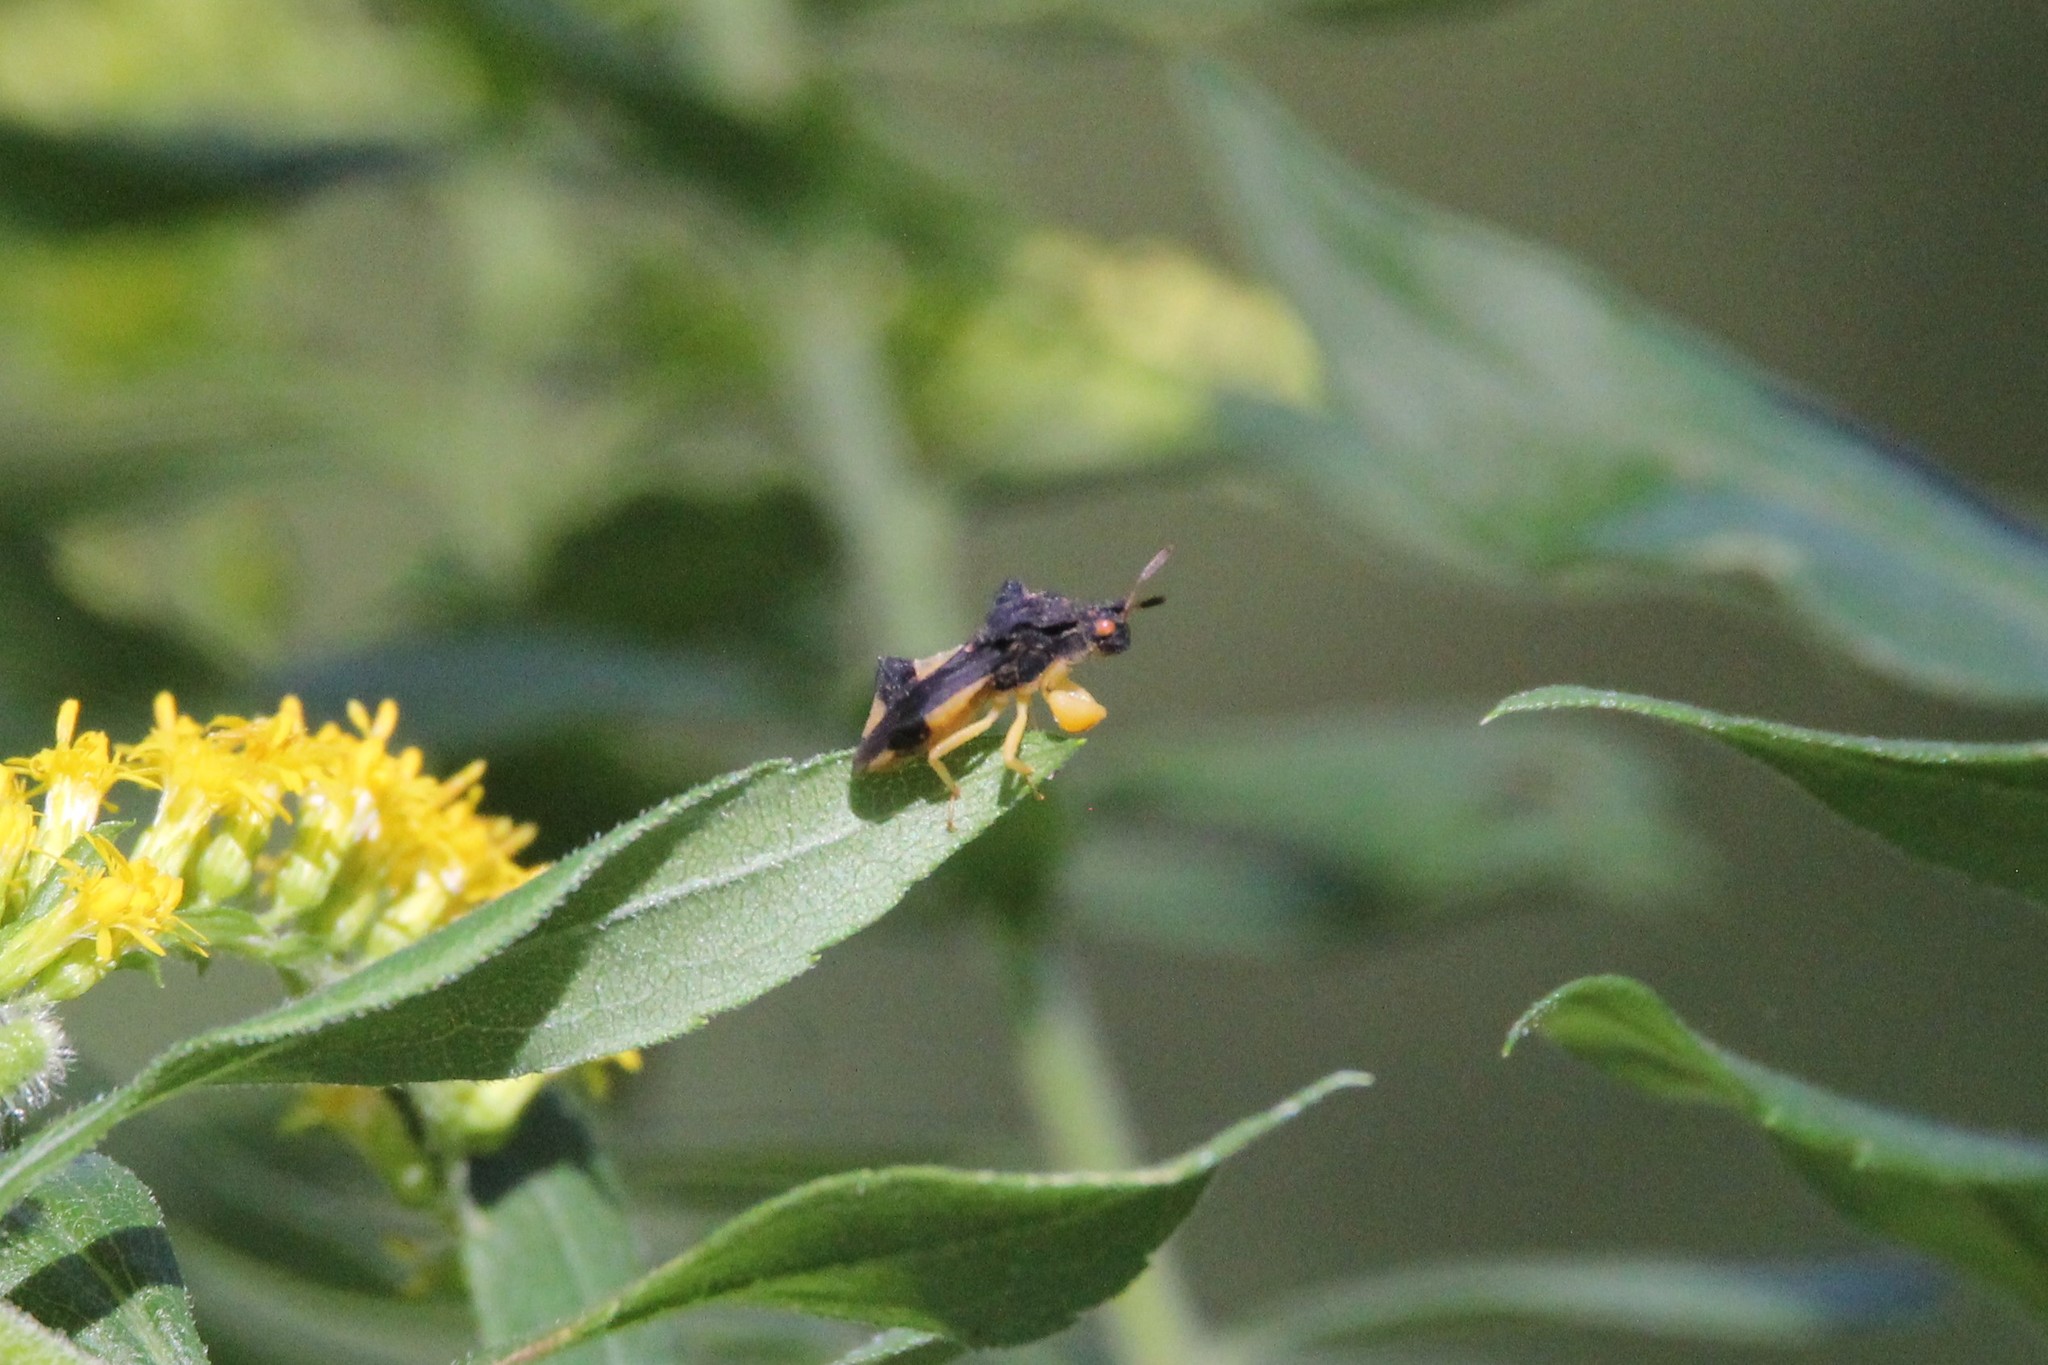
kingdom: Animalia
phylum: Arthropoda
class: Insecta
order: Hemiptera
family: Reduviidae
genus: Phymata
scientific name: Phymata pennsylvanica
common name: Pennsylvania ambush bug
